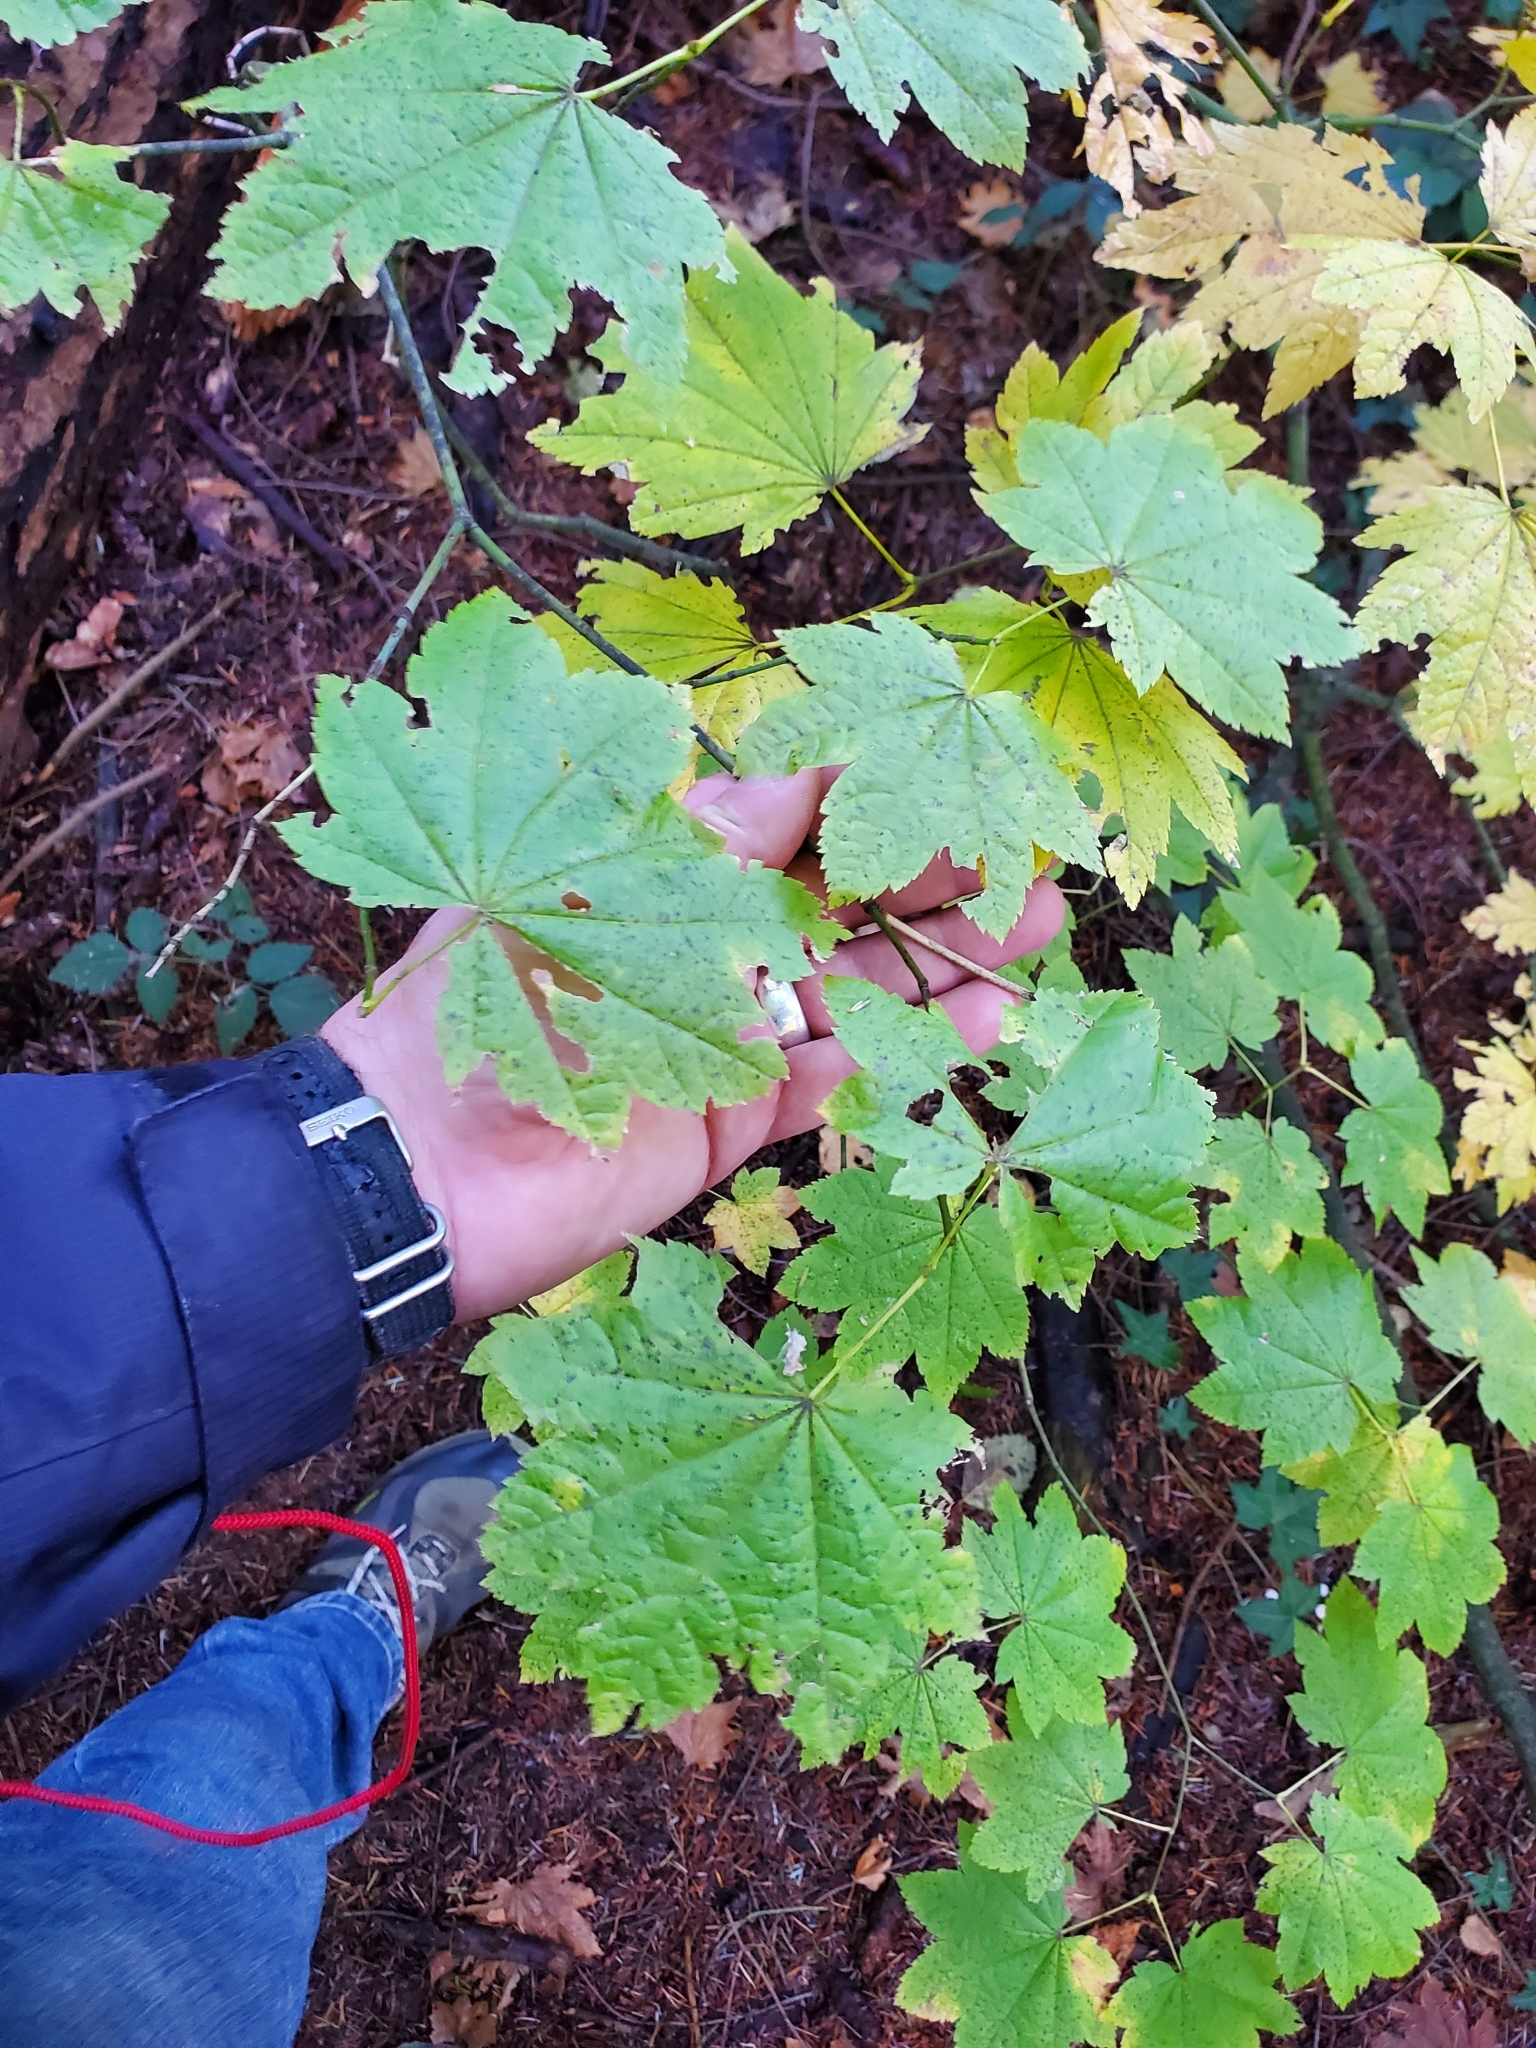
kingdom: Plantae
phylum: Tracheophyta
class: Magnoliopsida
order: Sapindales
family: Sapindaceae
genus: Acer
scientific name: Acer circinatum
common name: Vine maple
